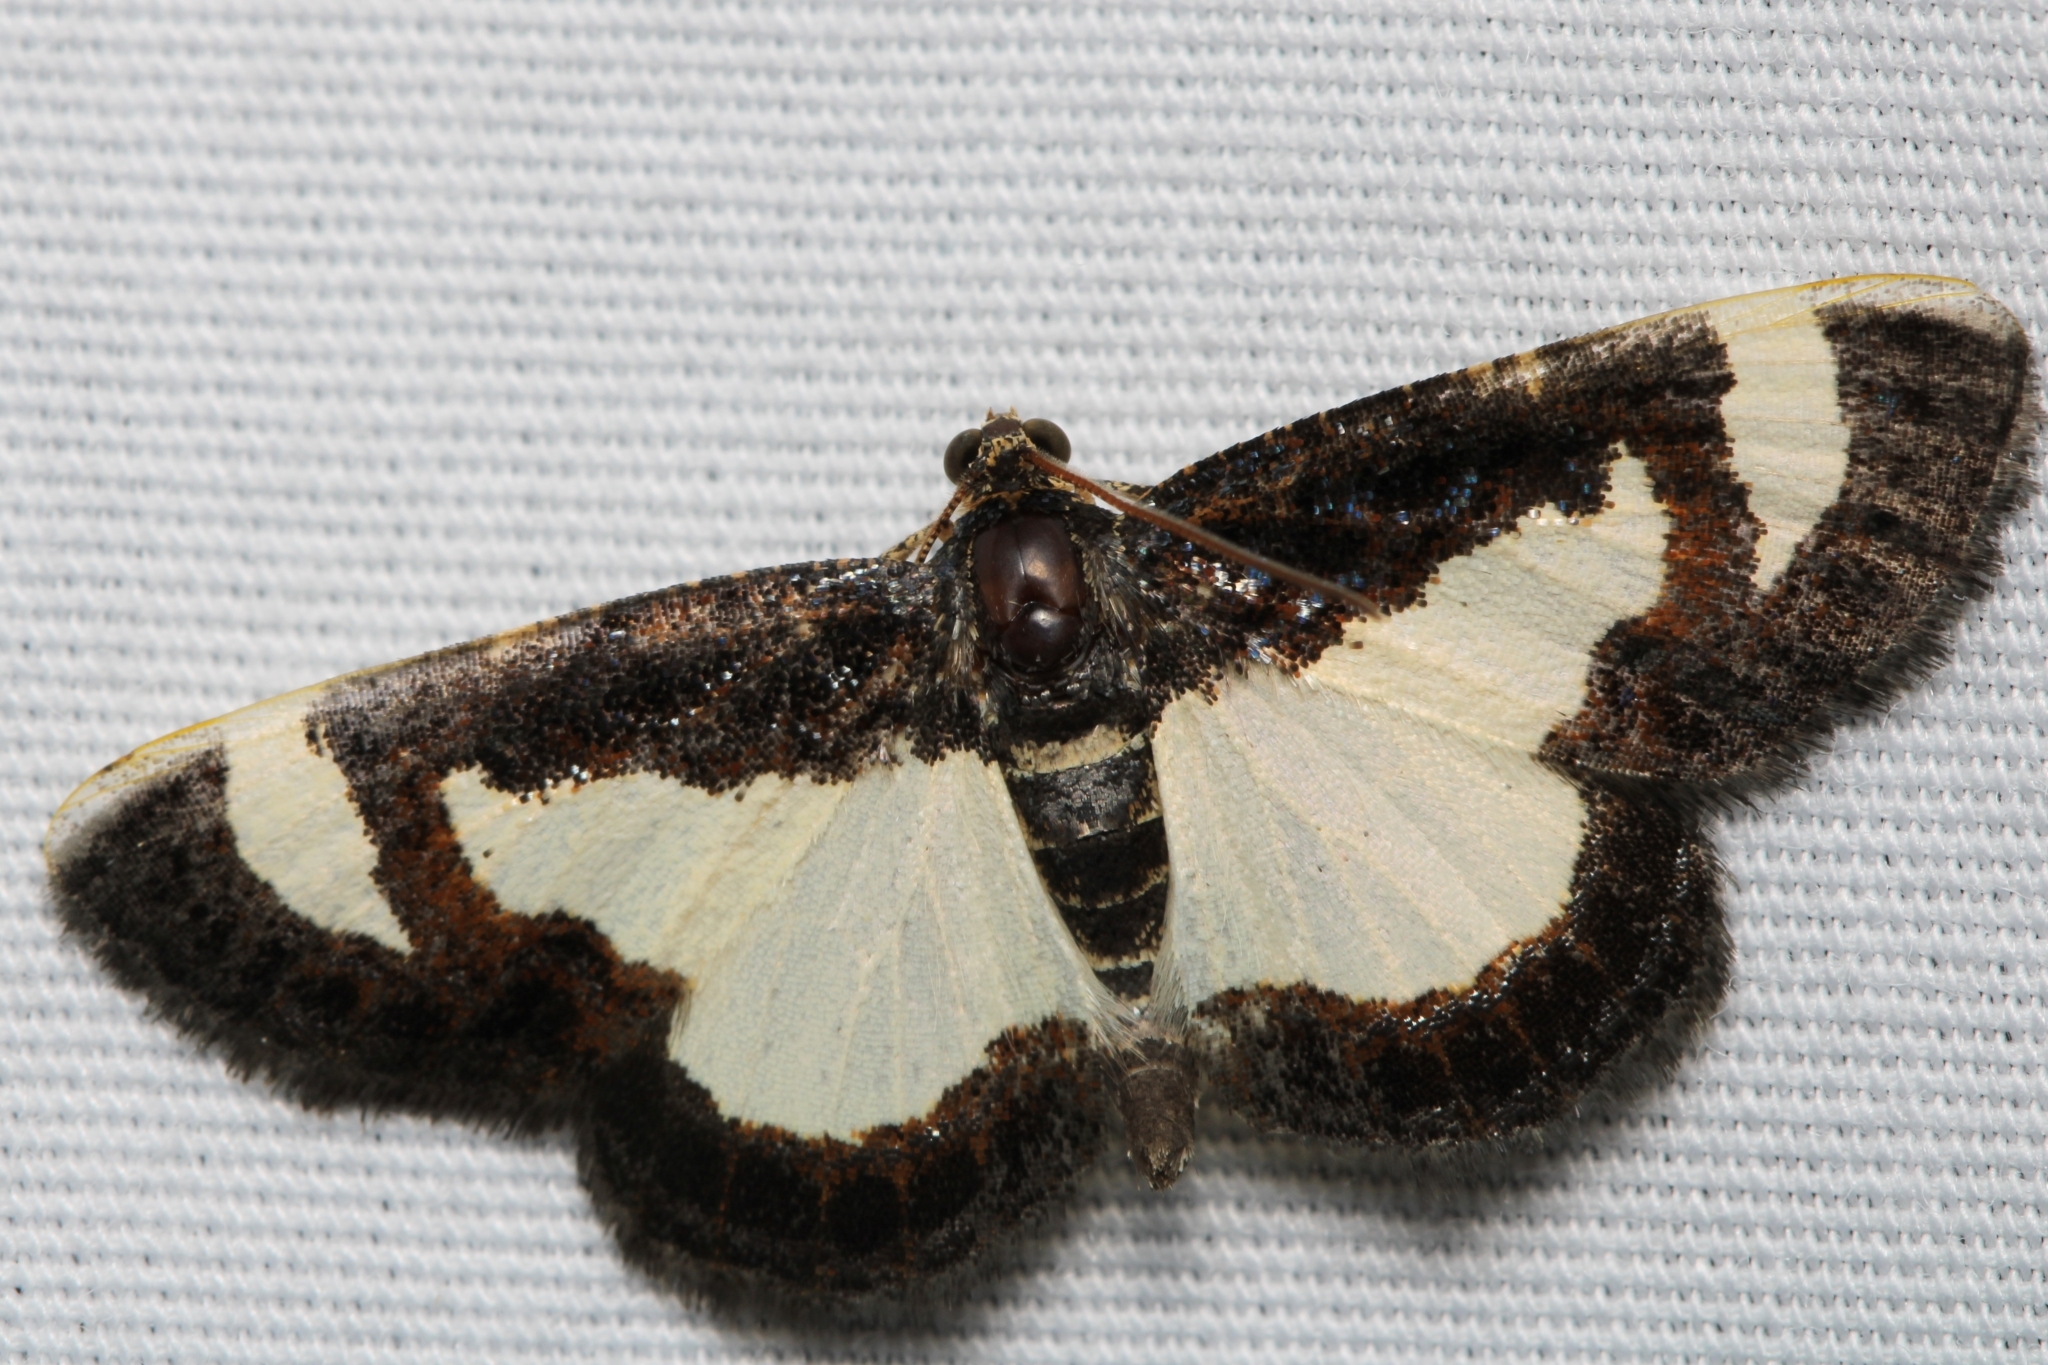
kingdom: Animalia
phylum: Arthropoda
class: Insecta
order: Lepidoptera
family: Geometridae
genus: Heliomata
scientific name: Heliomata cycladata
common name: Common spring moth
